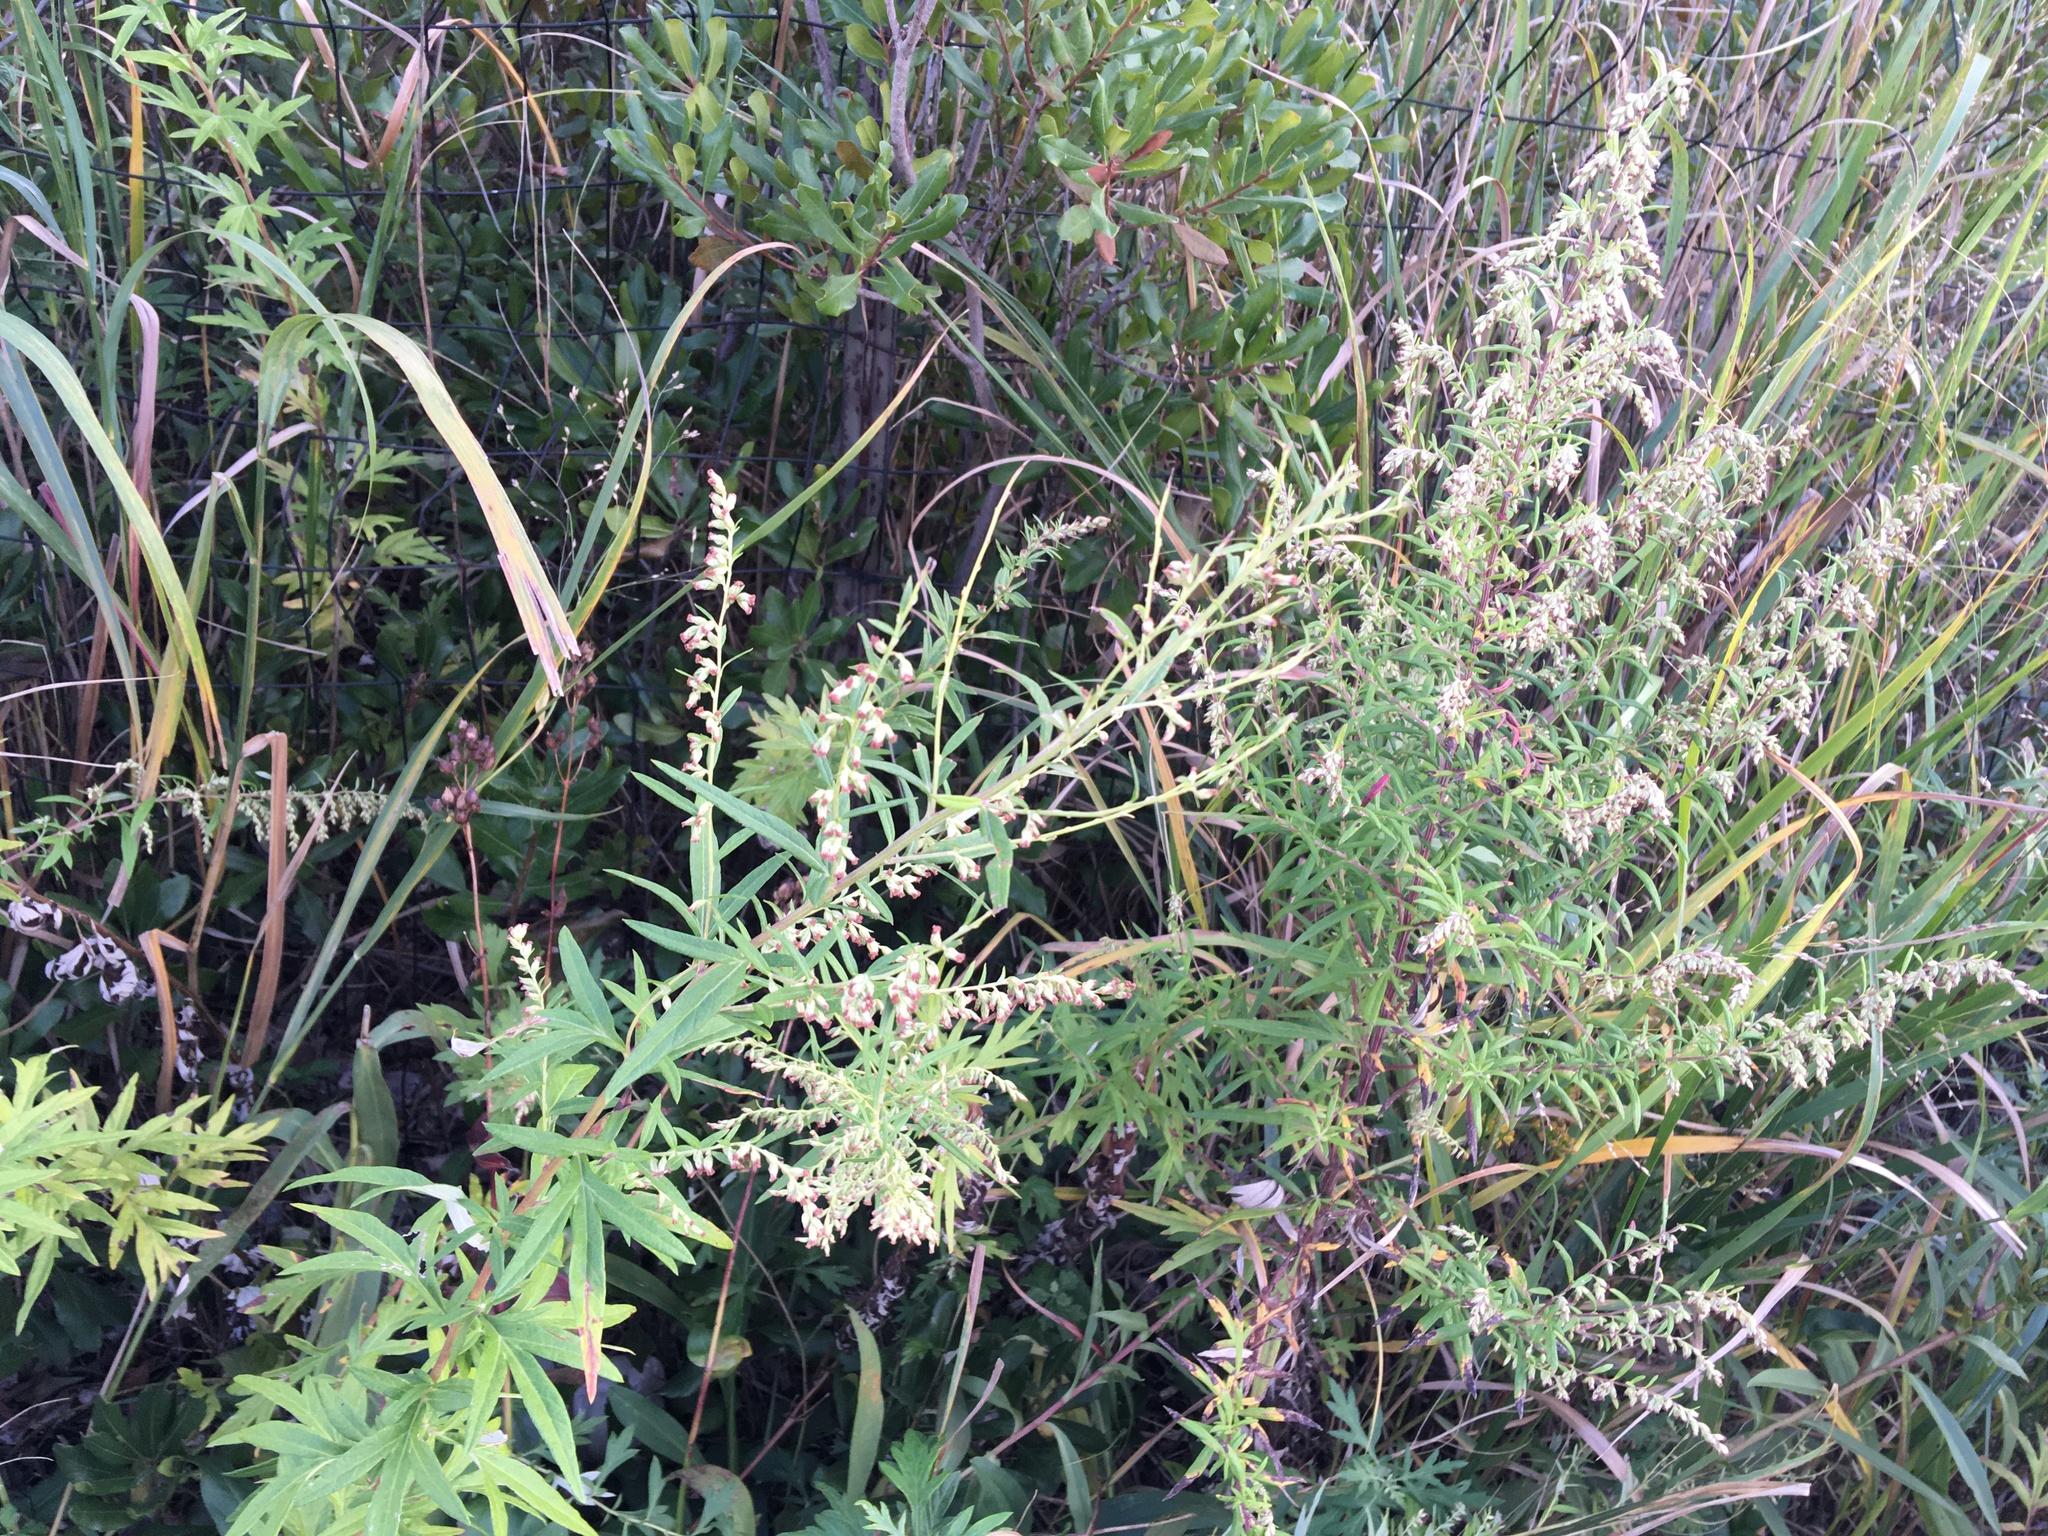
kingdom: Plantae
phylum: Tracheophyta
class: Magnoliopsida
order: Asterales
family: Asteraceae
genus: Artemisia
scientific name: Artemisia vulgaris
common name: Mugwort
